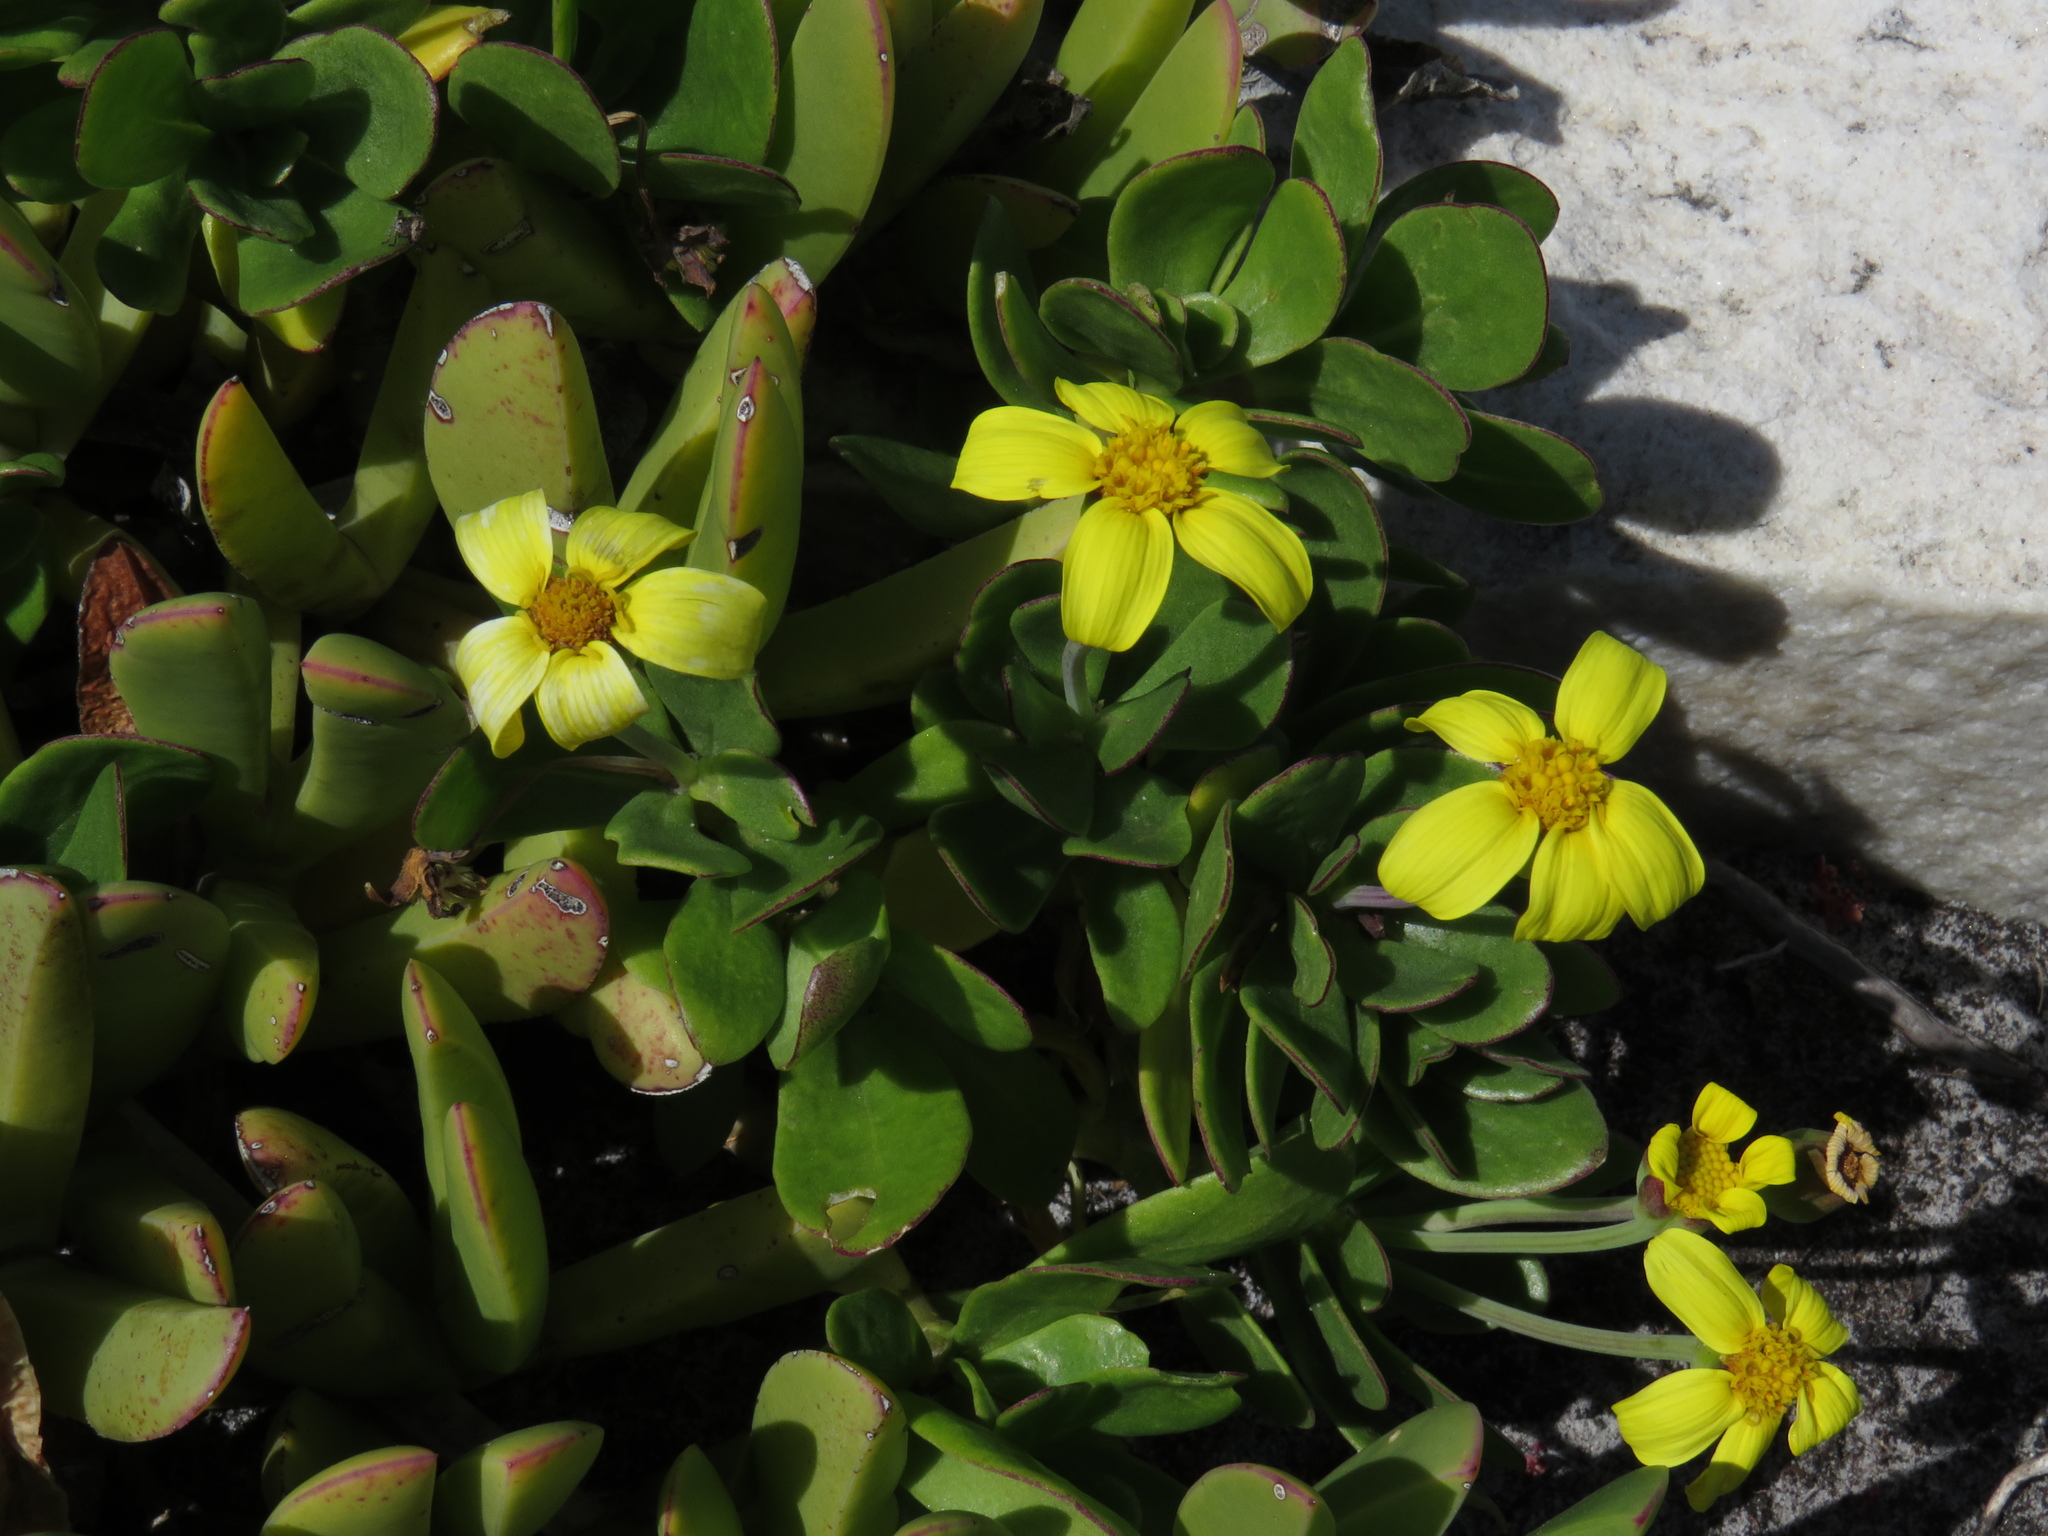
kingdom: Plantae
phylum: Tracheophyta
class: Magnoliopsida
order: Asterales
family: Asteraceae
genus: Othonna
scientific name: Othonna arborescens
